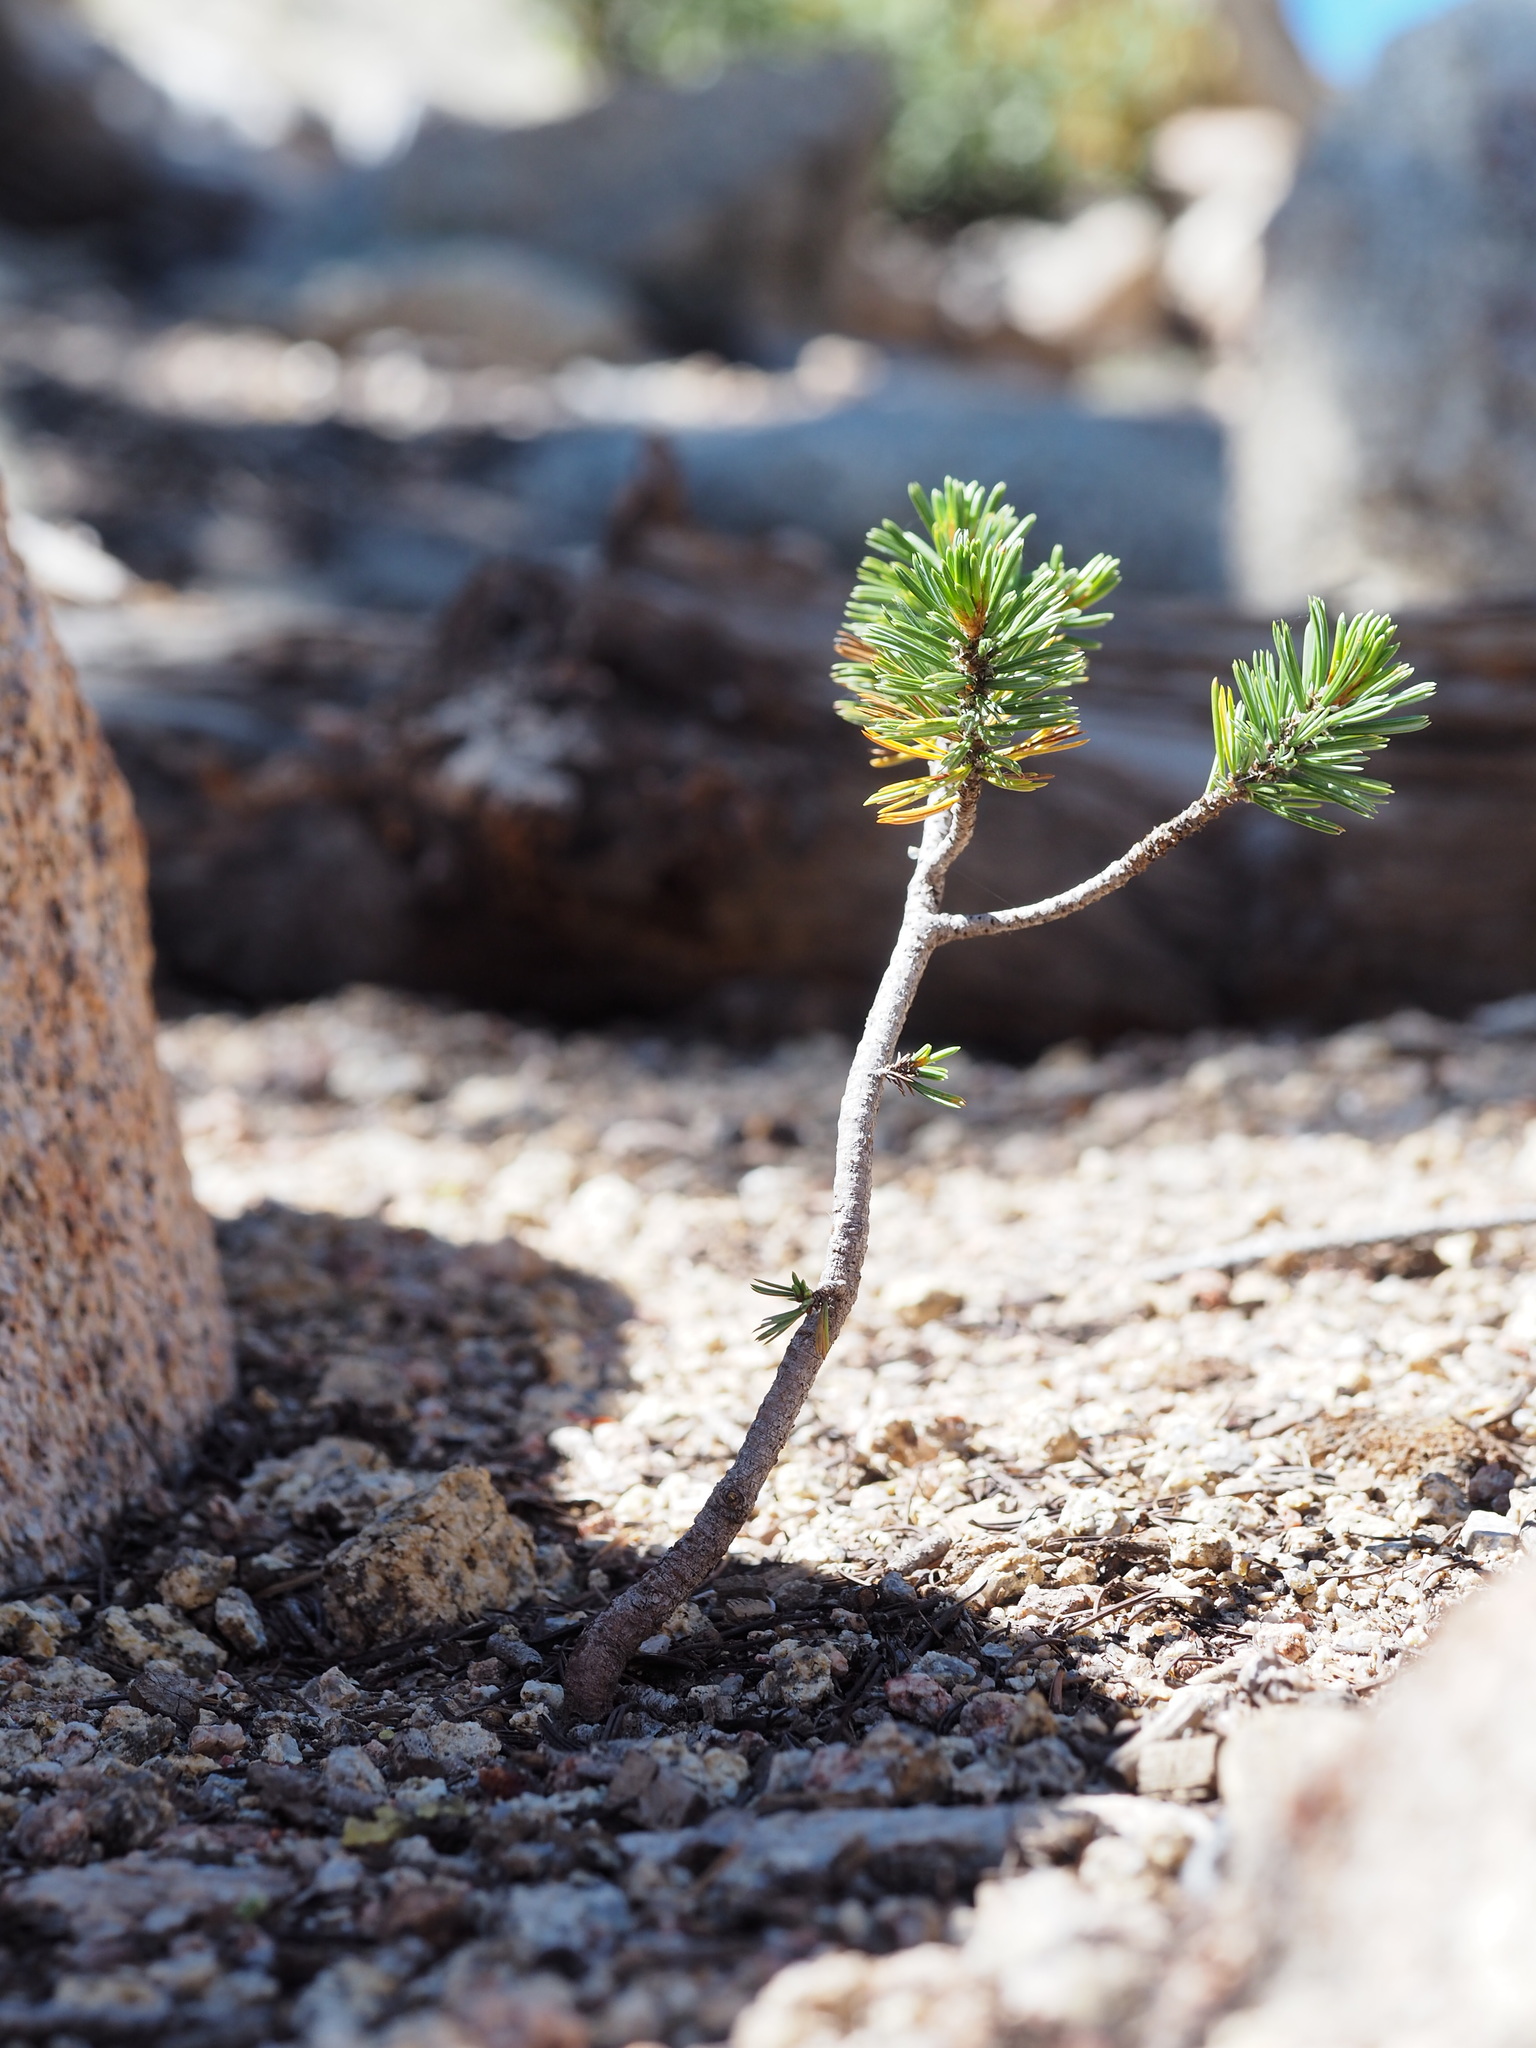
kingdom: Plantae
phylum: Tracheophyta
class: Pinopsida
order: Pinales
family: Pinaceae
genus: Pinus
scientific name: Pinus balfouriana
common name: Foxtail pine
